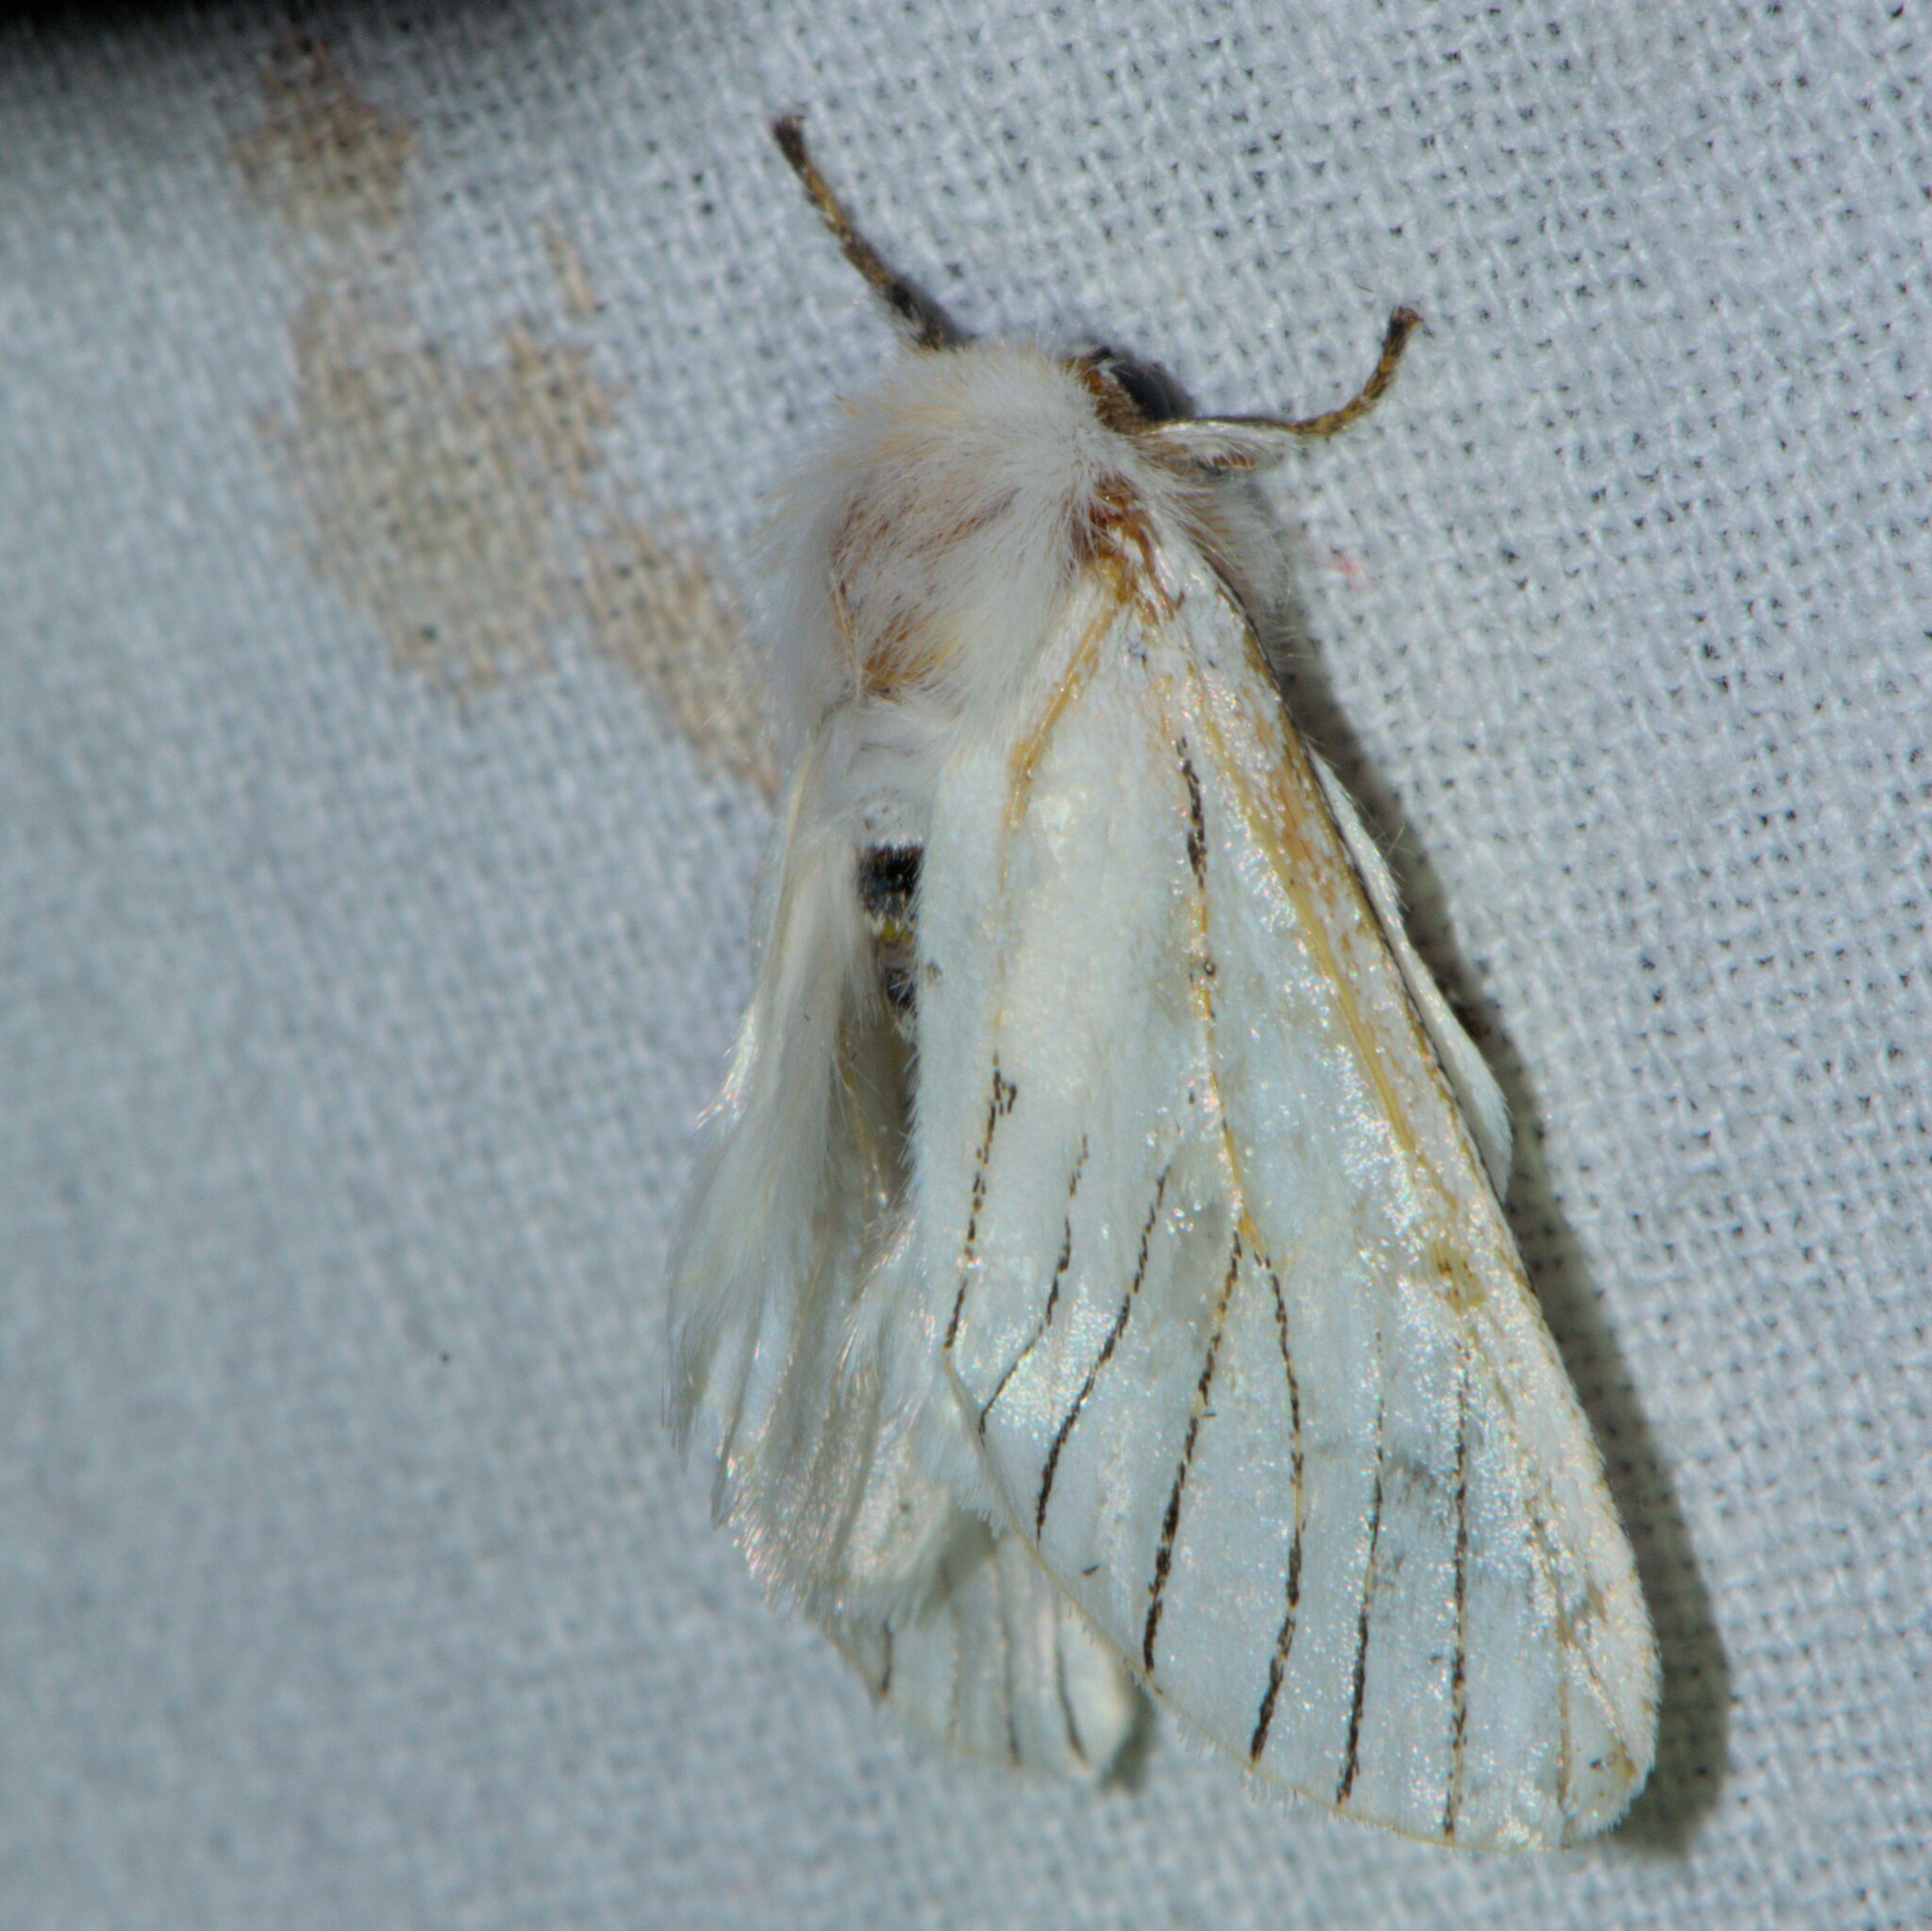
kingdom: Animalia
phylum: Arthropoda
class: Insecta
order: Lepidoptera
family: Notodontidae
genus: Oligoclona
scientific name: Oligoclona chrysolopha
